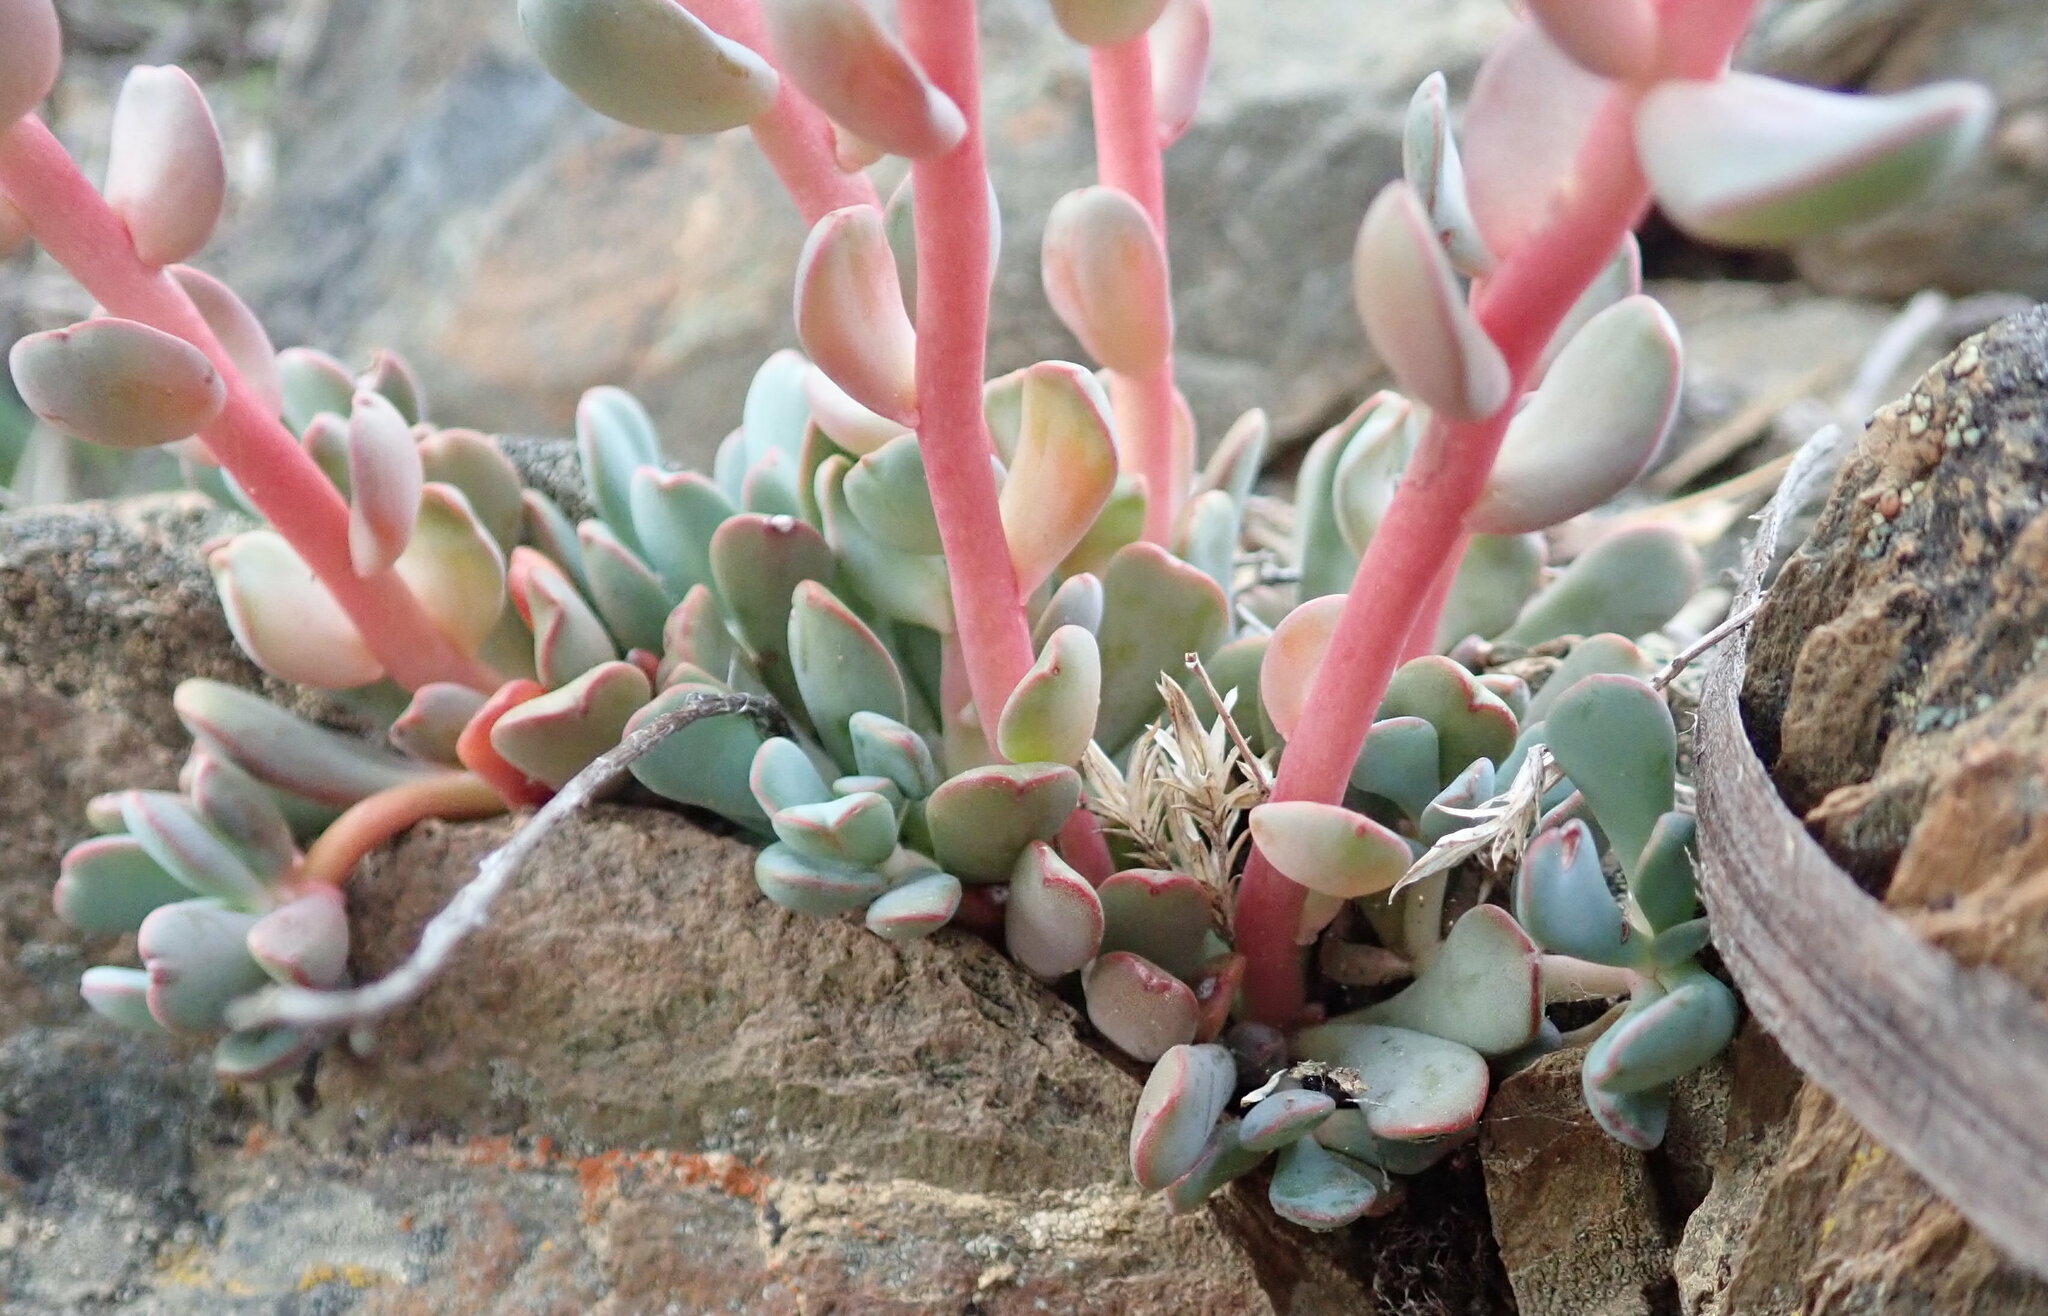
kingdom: Plantae
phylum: Tracheophyta
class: Magnoliopsida
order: Saxifragales
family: Crassulaceae
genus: Sedum
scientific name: Sedum laxum
